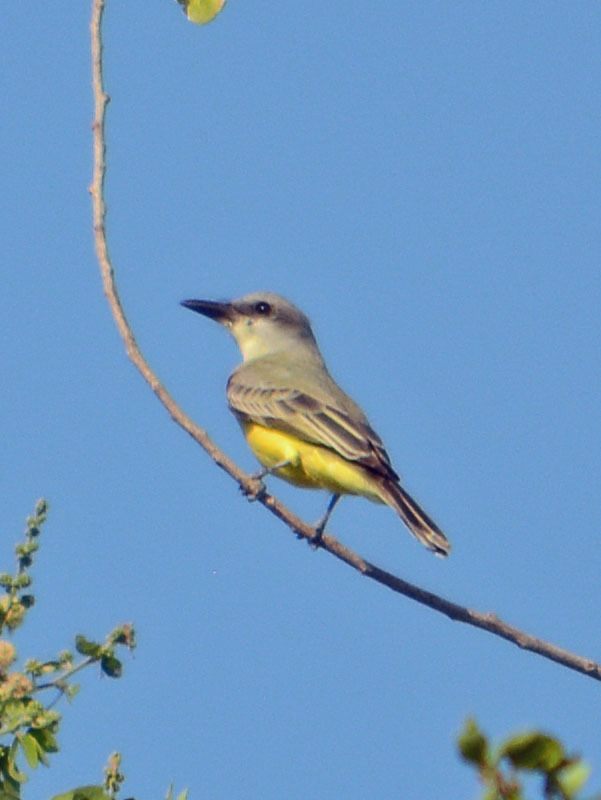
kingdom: Animalia
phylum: Chordata
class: Aves
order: Passeriformes
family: Tyrannidae
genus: Tyrannus
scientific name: Tyrannus melancholicus
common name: Tropical kingbird
